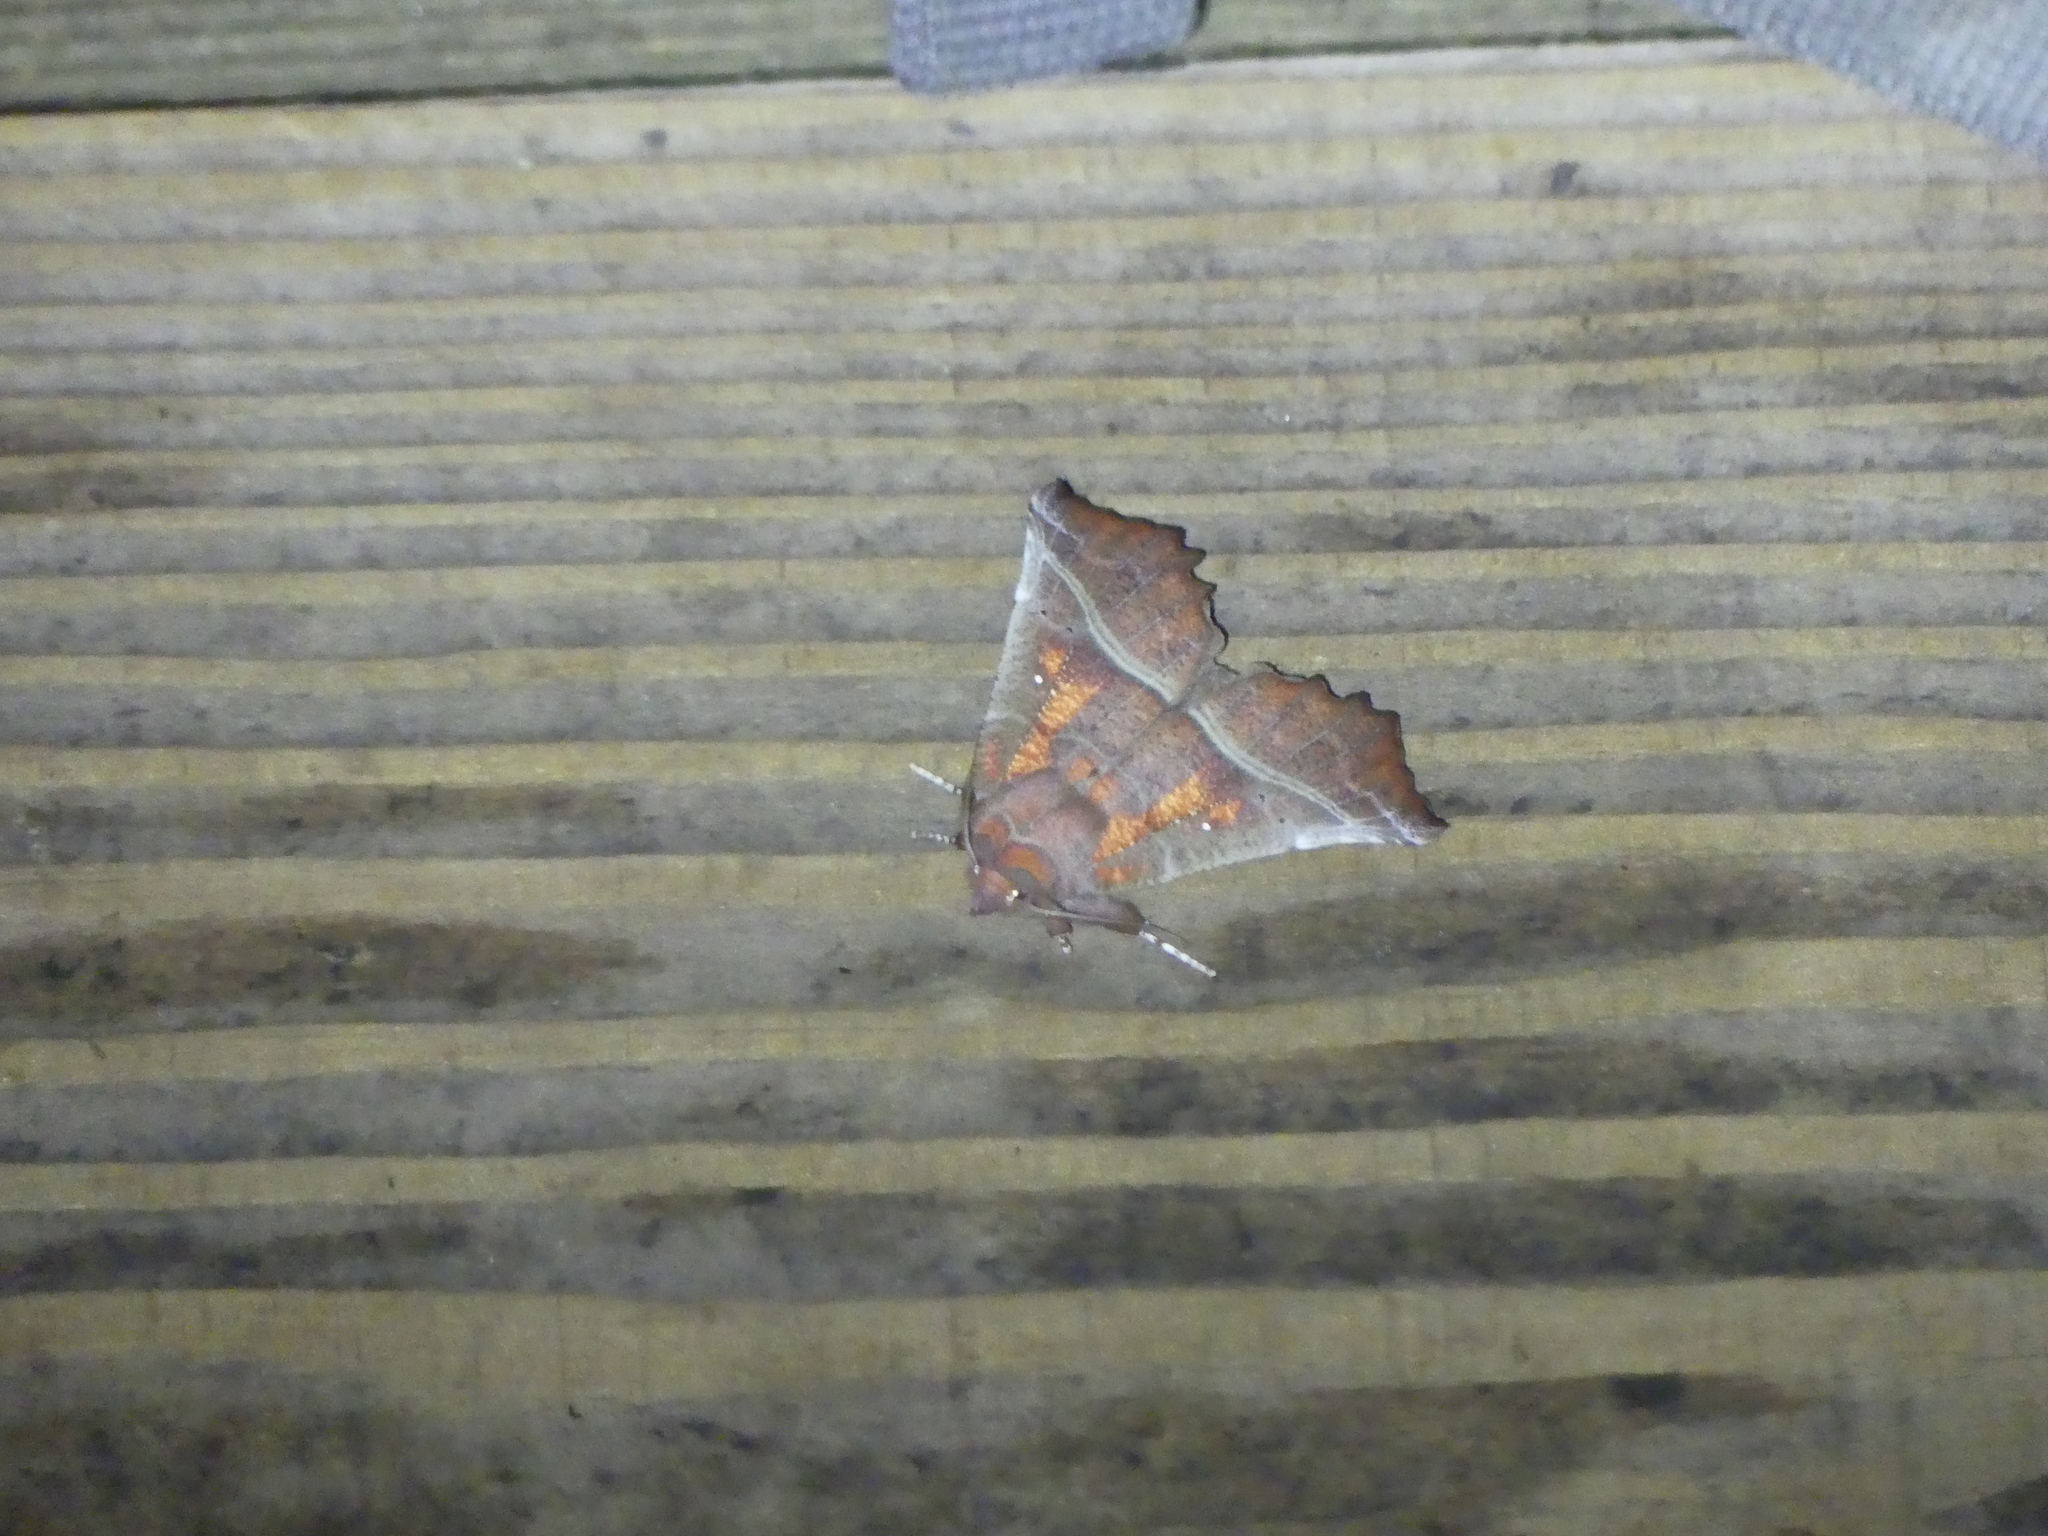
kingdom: Animalia
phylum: Arthropoda
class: Insecta
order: Lepidoptera
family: Erebidae
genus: Scoliopteryx
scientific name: Scoliopteryx libatrix
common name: Herald
